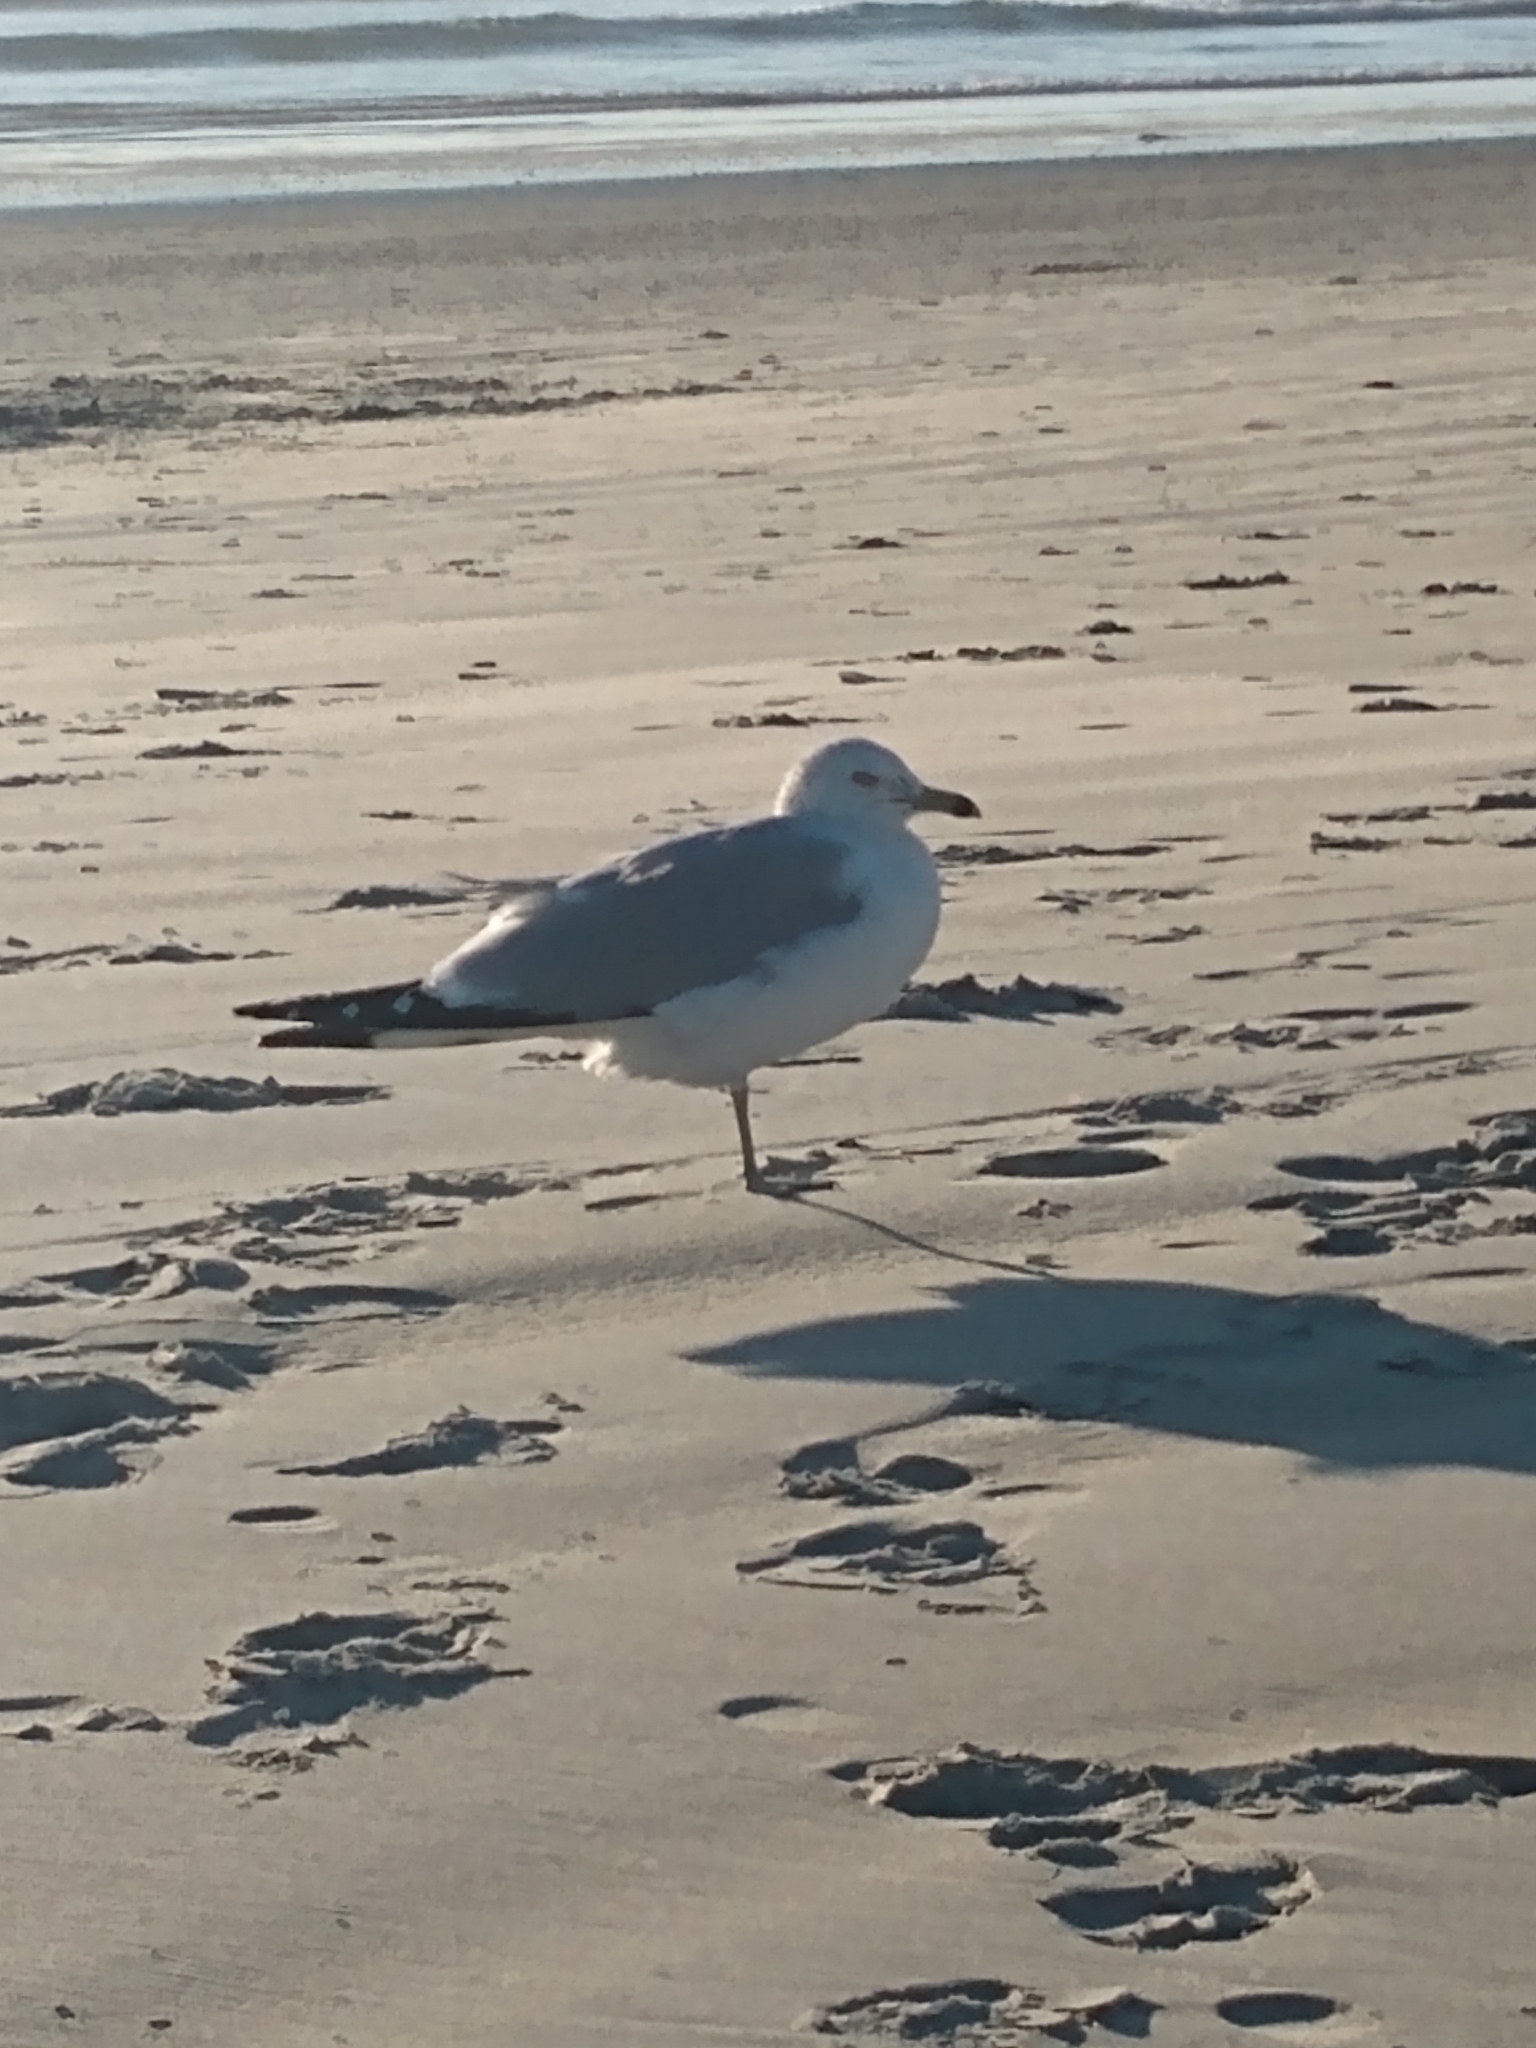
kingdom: Animalia
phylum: Chordata
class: Aves
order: Charadriiformes
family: Laridae
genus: Larus
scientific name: Larus delawarensis
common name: Ring-billed gull
